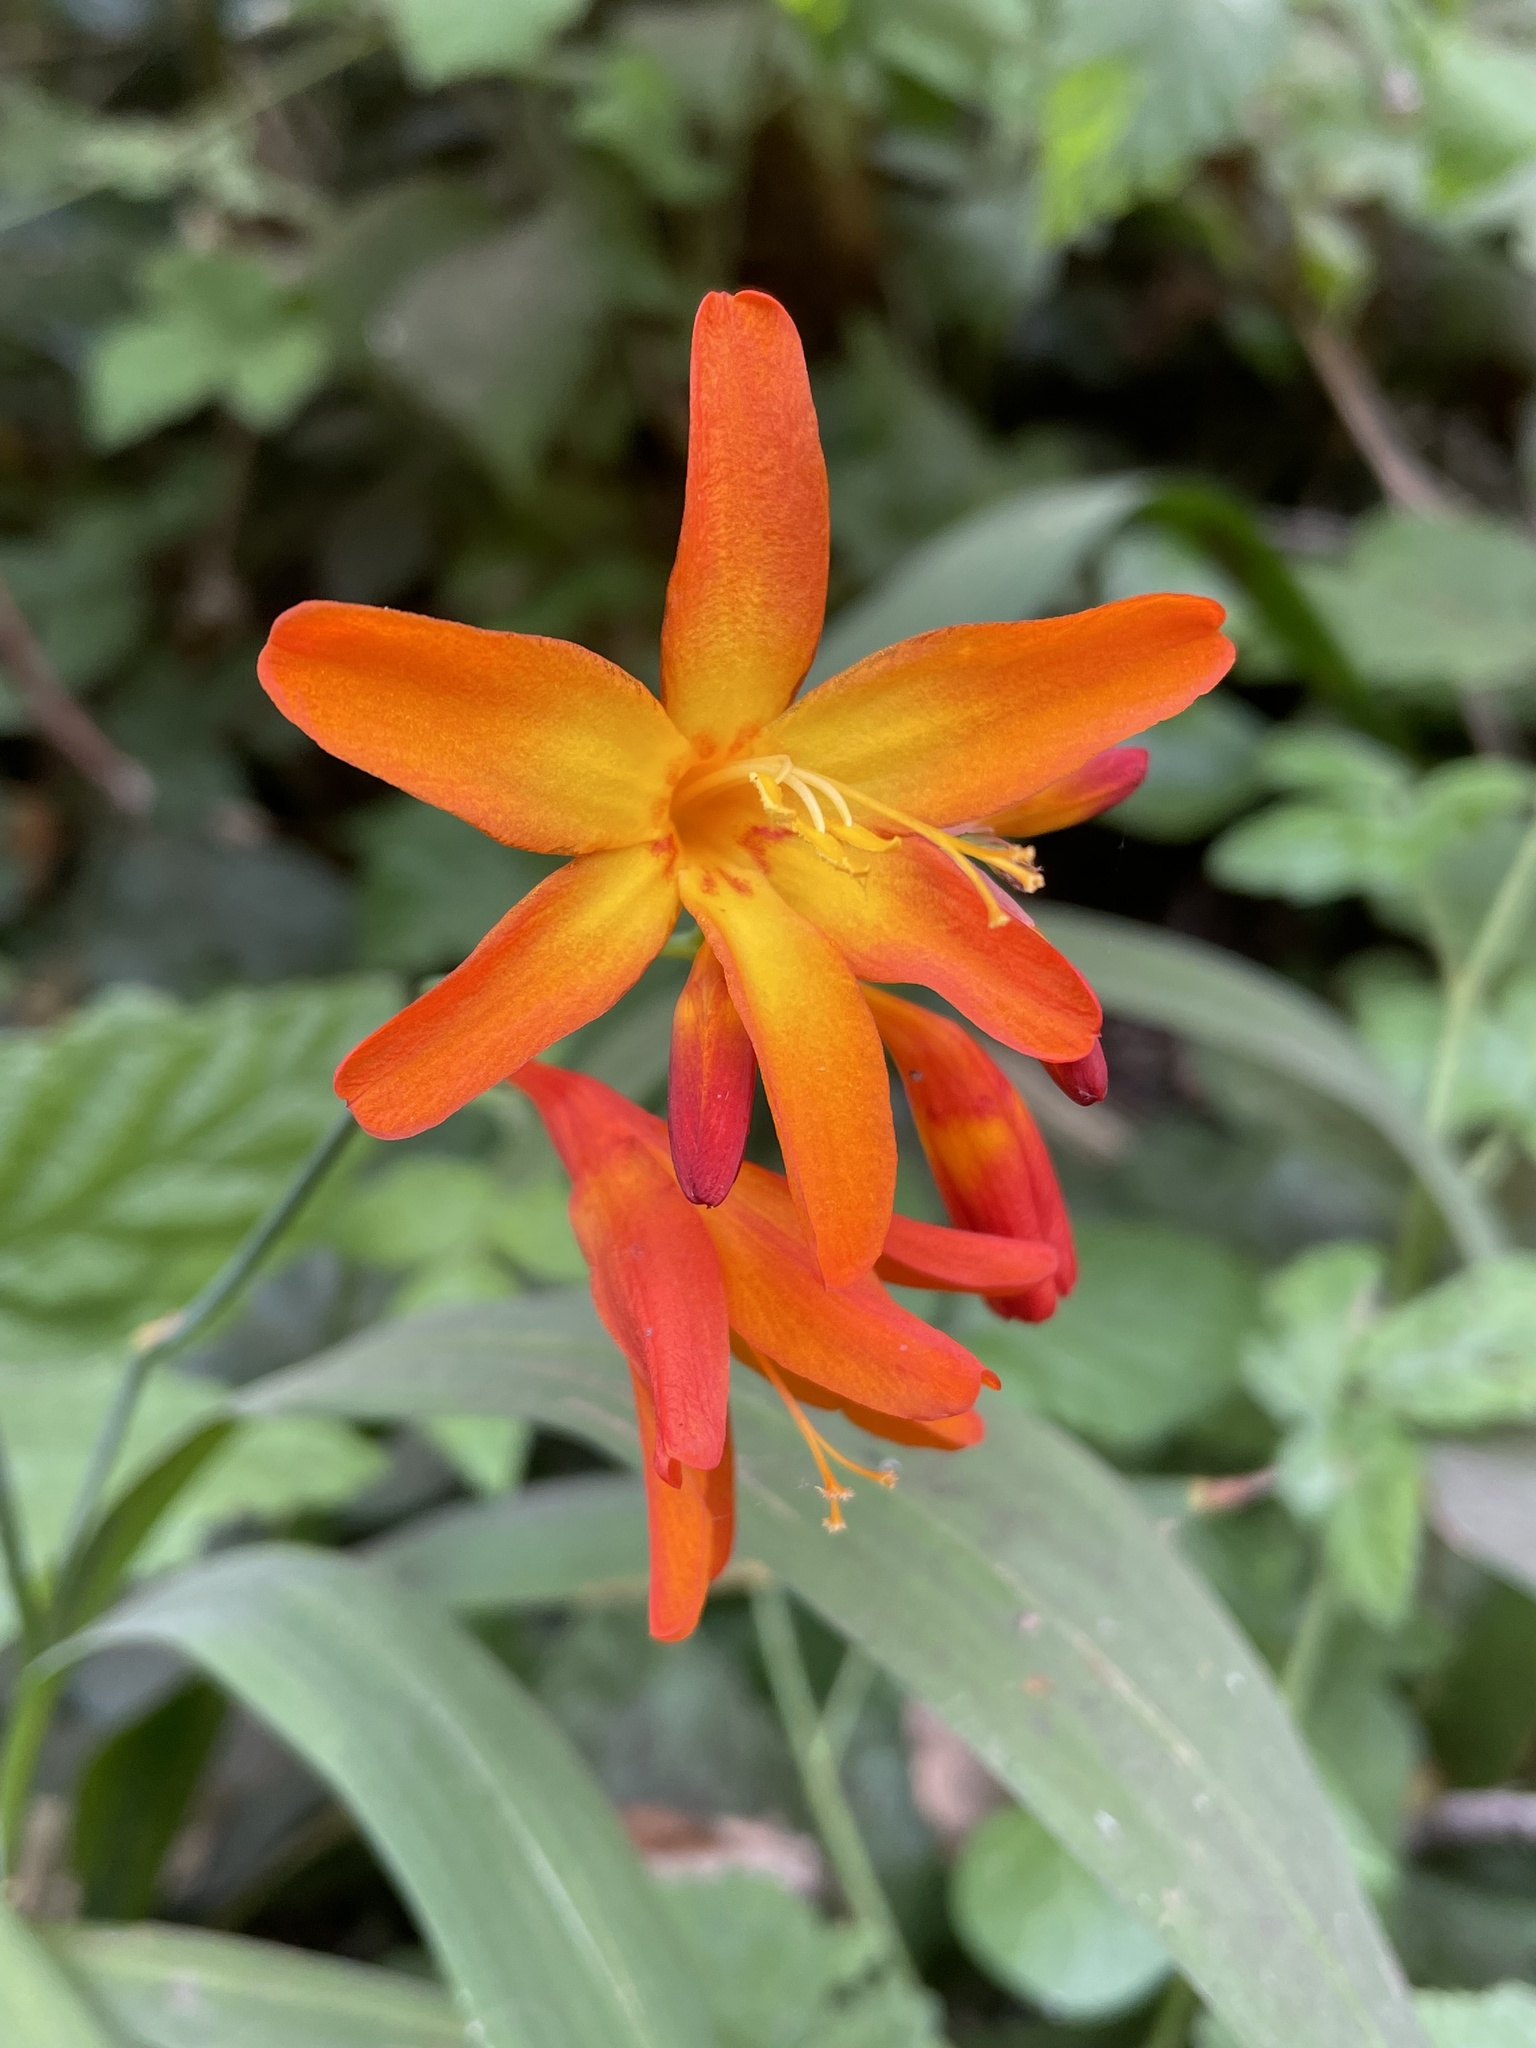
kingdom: Plantae
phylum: Tracheophyta
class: Liliopsida
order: Asparagales
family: Iridaceae
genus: Crocosmia
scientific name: Crocosmia crocosmiiflora
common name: Montbretia
